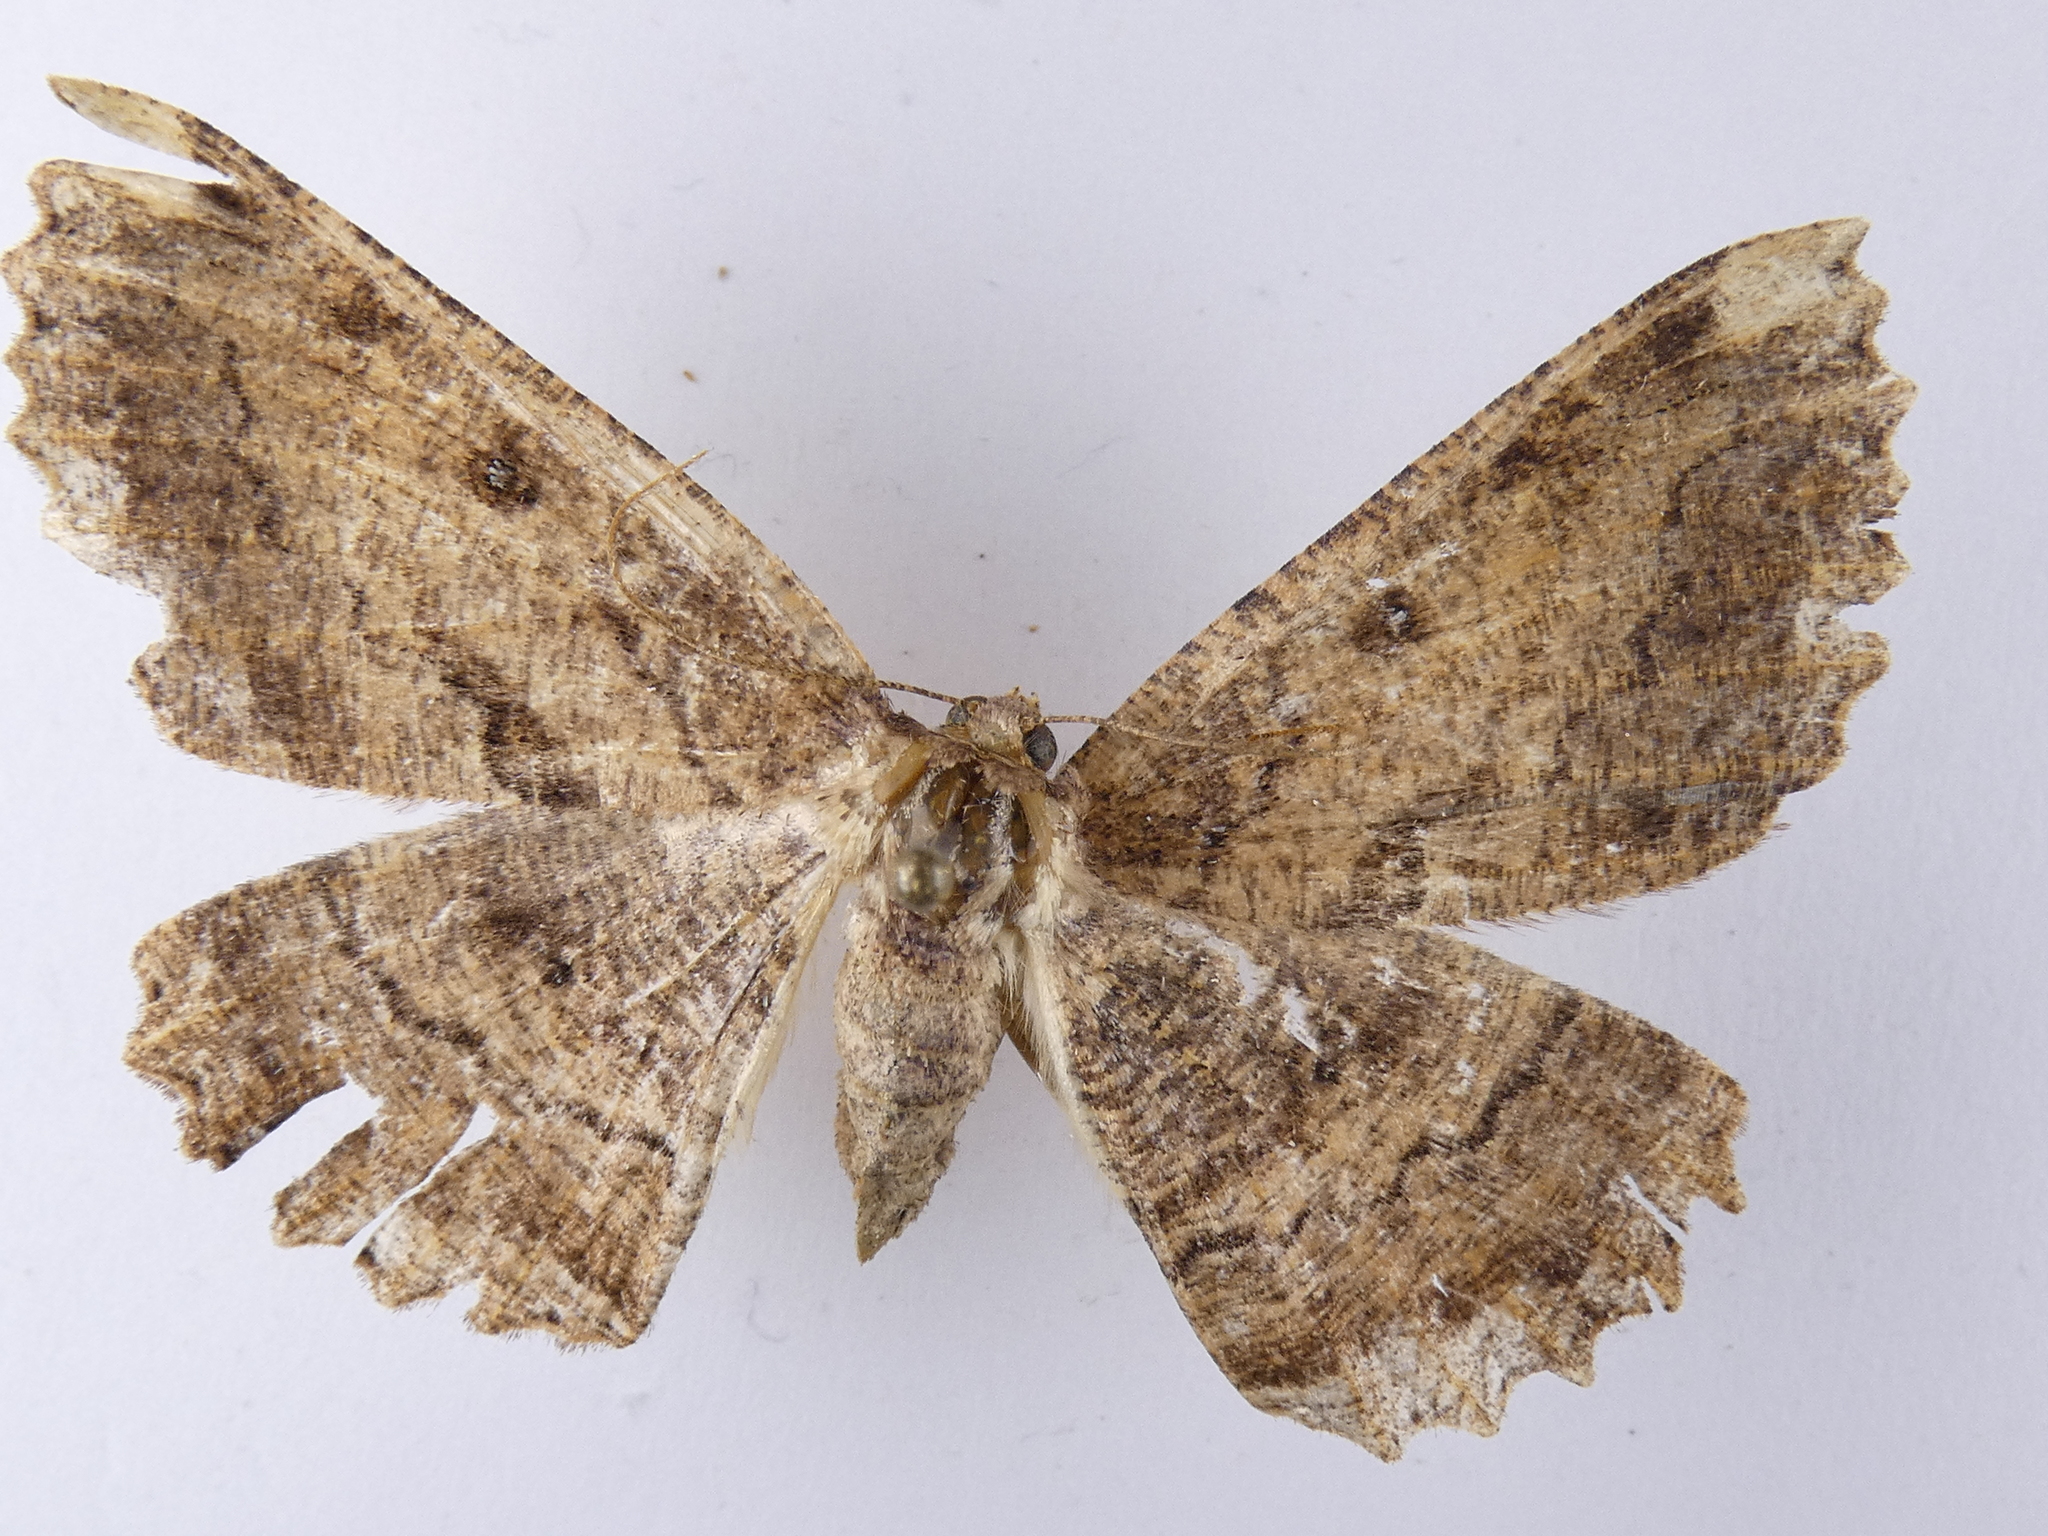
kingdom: Animalia
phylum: Arthropoda
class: Insecta
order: Lepidoptera
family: Geometridae
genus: Gellonia
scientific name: Gellonia dejectaria
